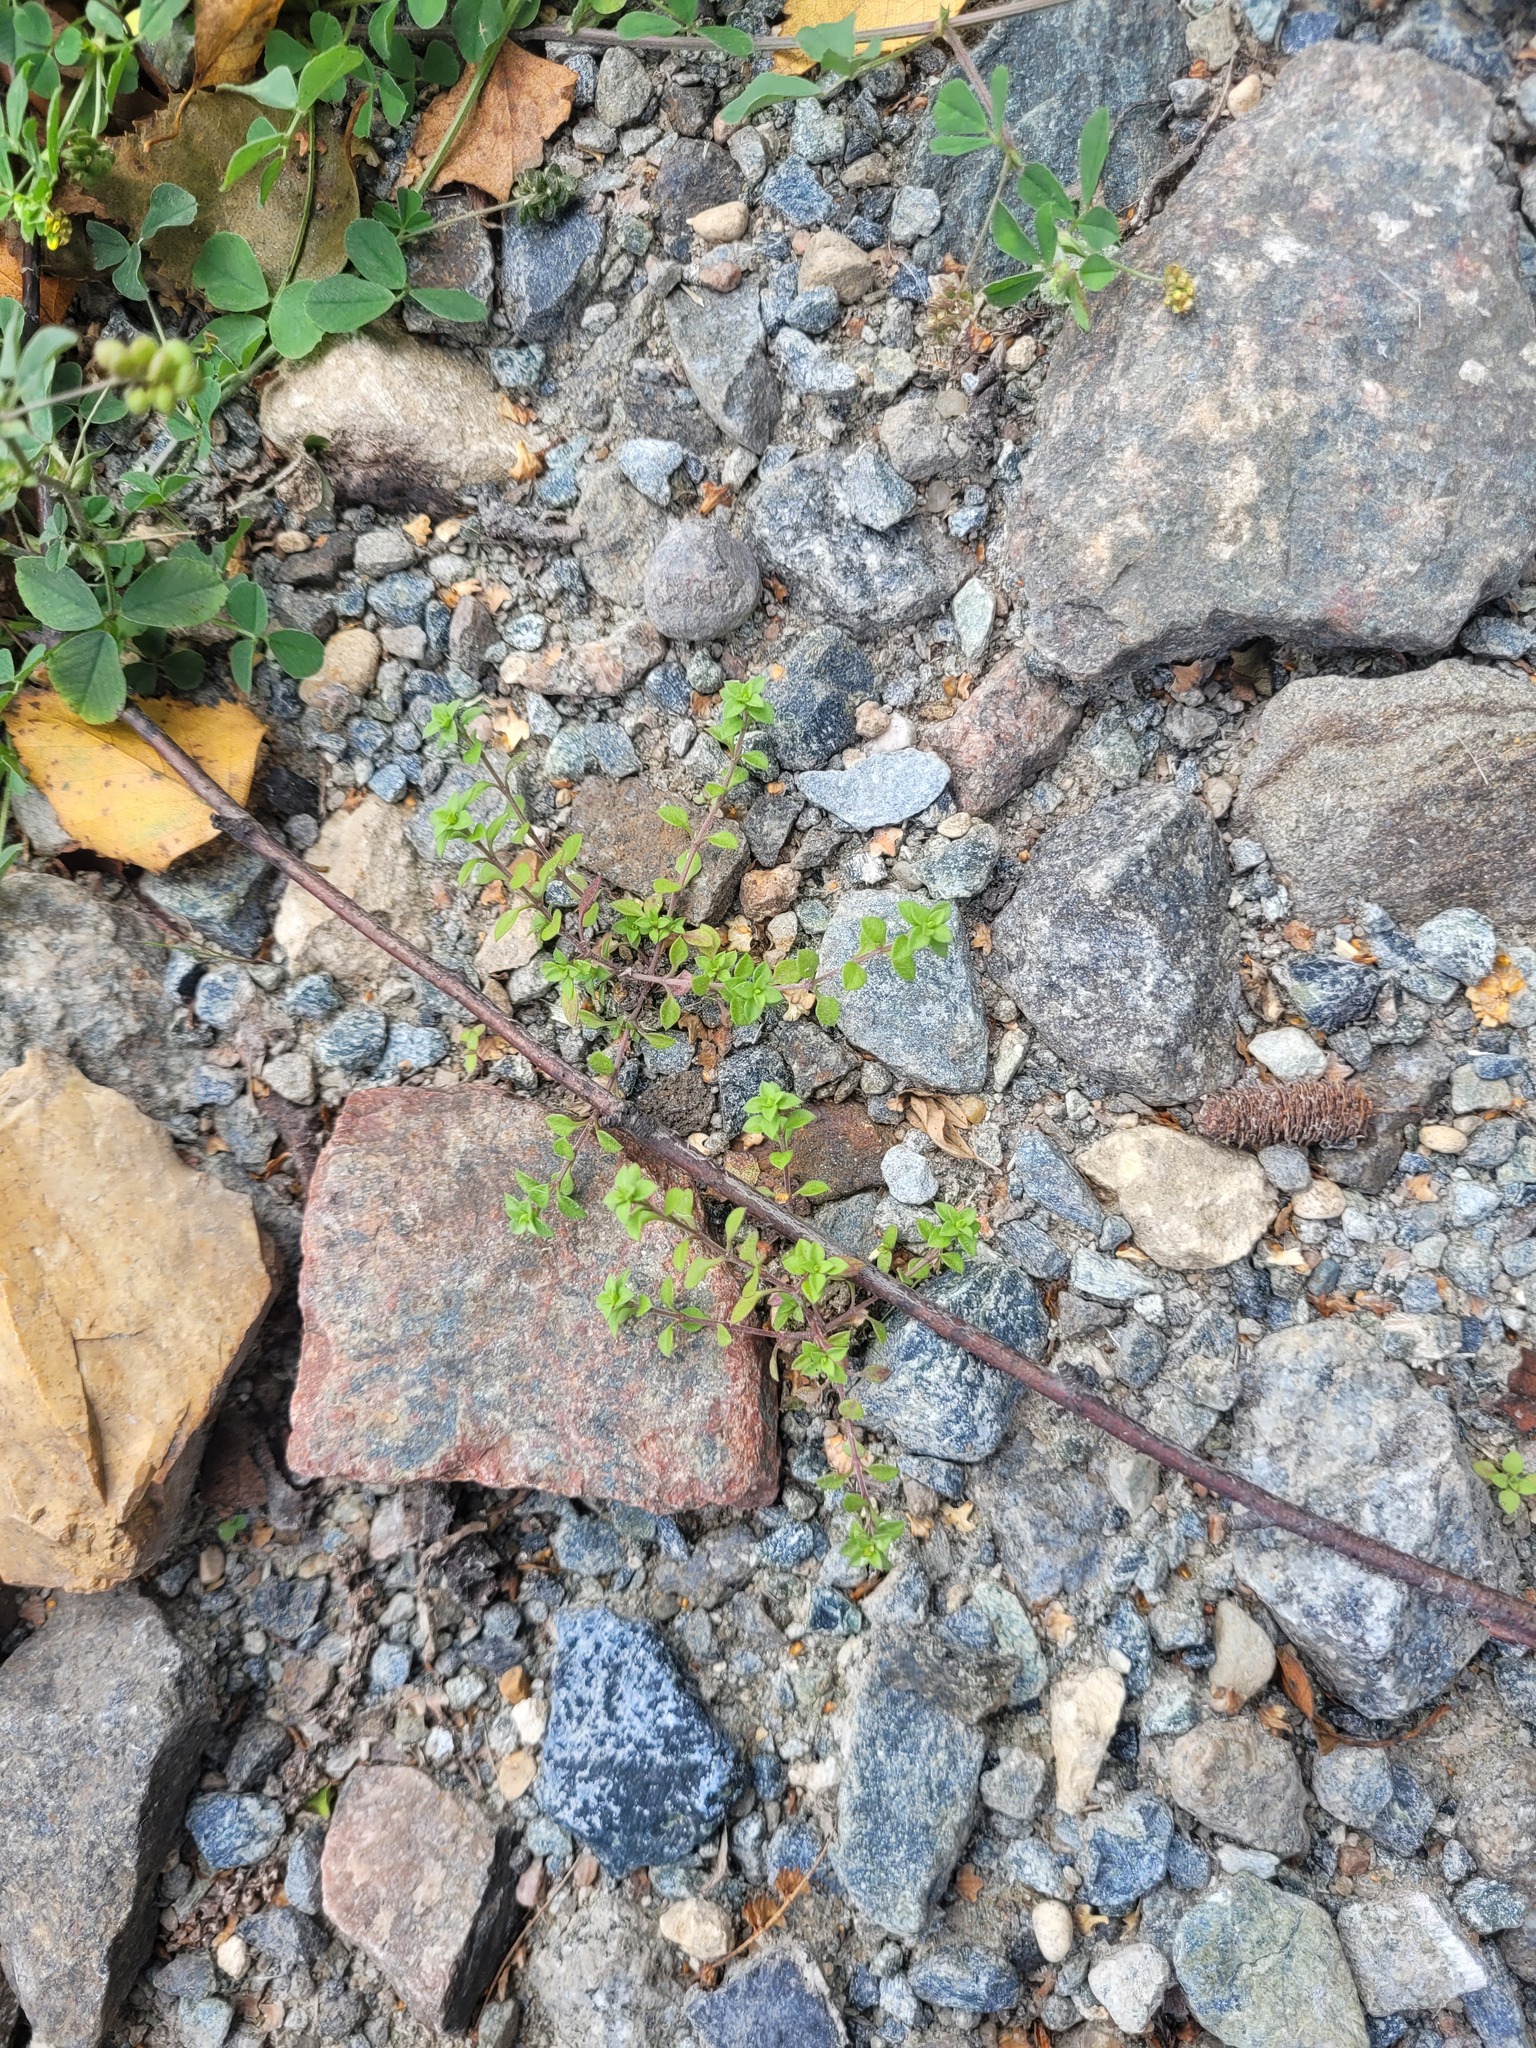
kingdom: Plantae
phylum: Tracheophyta
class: Magnoliopsida
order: Caryophyllales
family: Caryophyllaceae
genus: Arenaria
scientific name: Arenaria serpyllifolia
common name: Thyme-leaved sandwort
